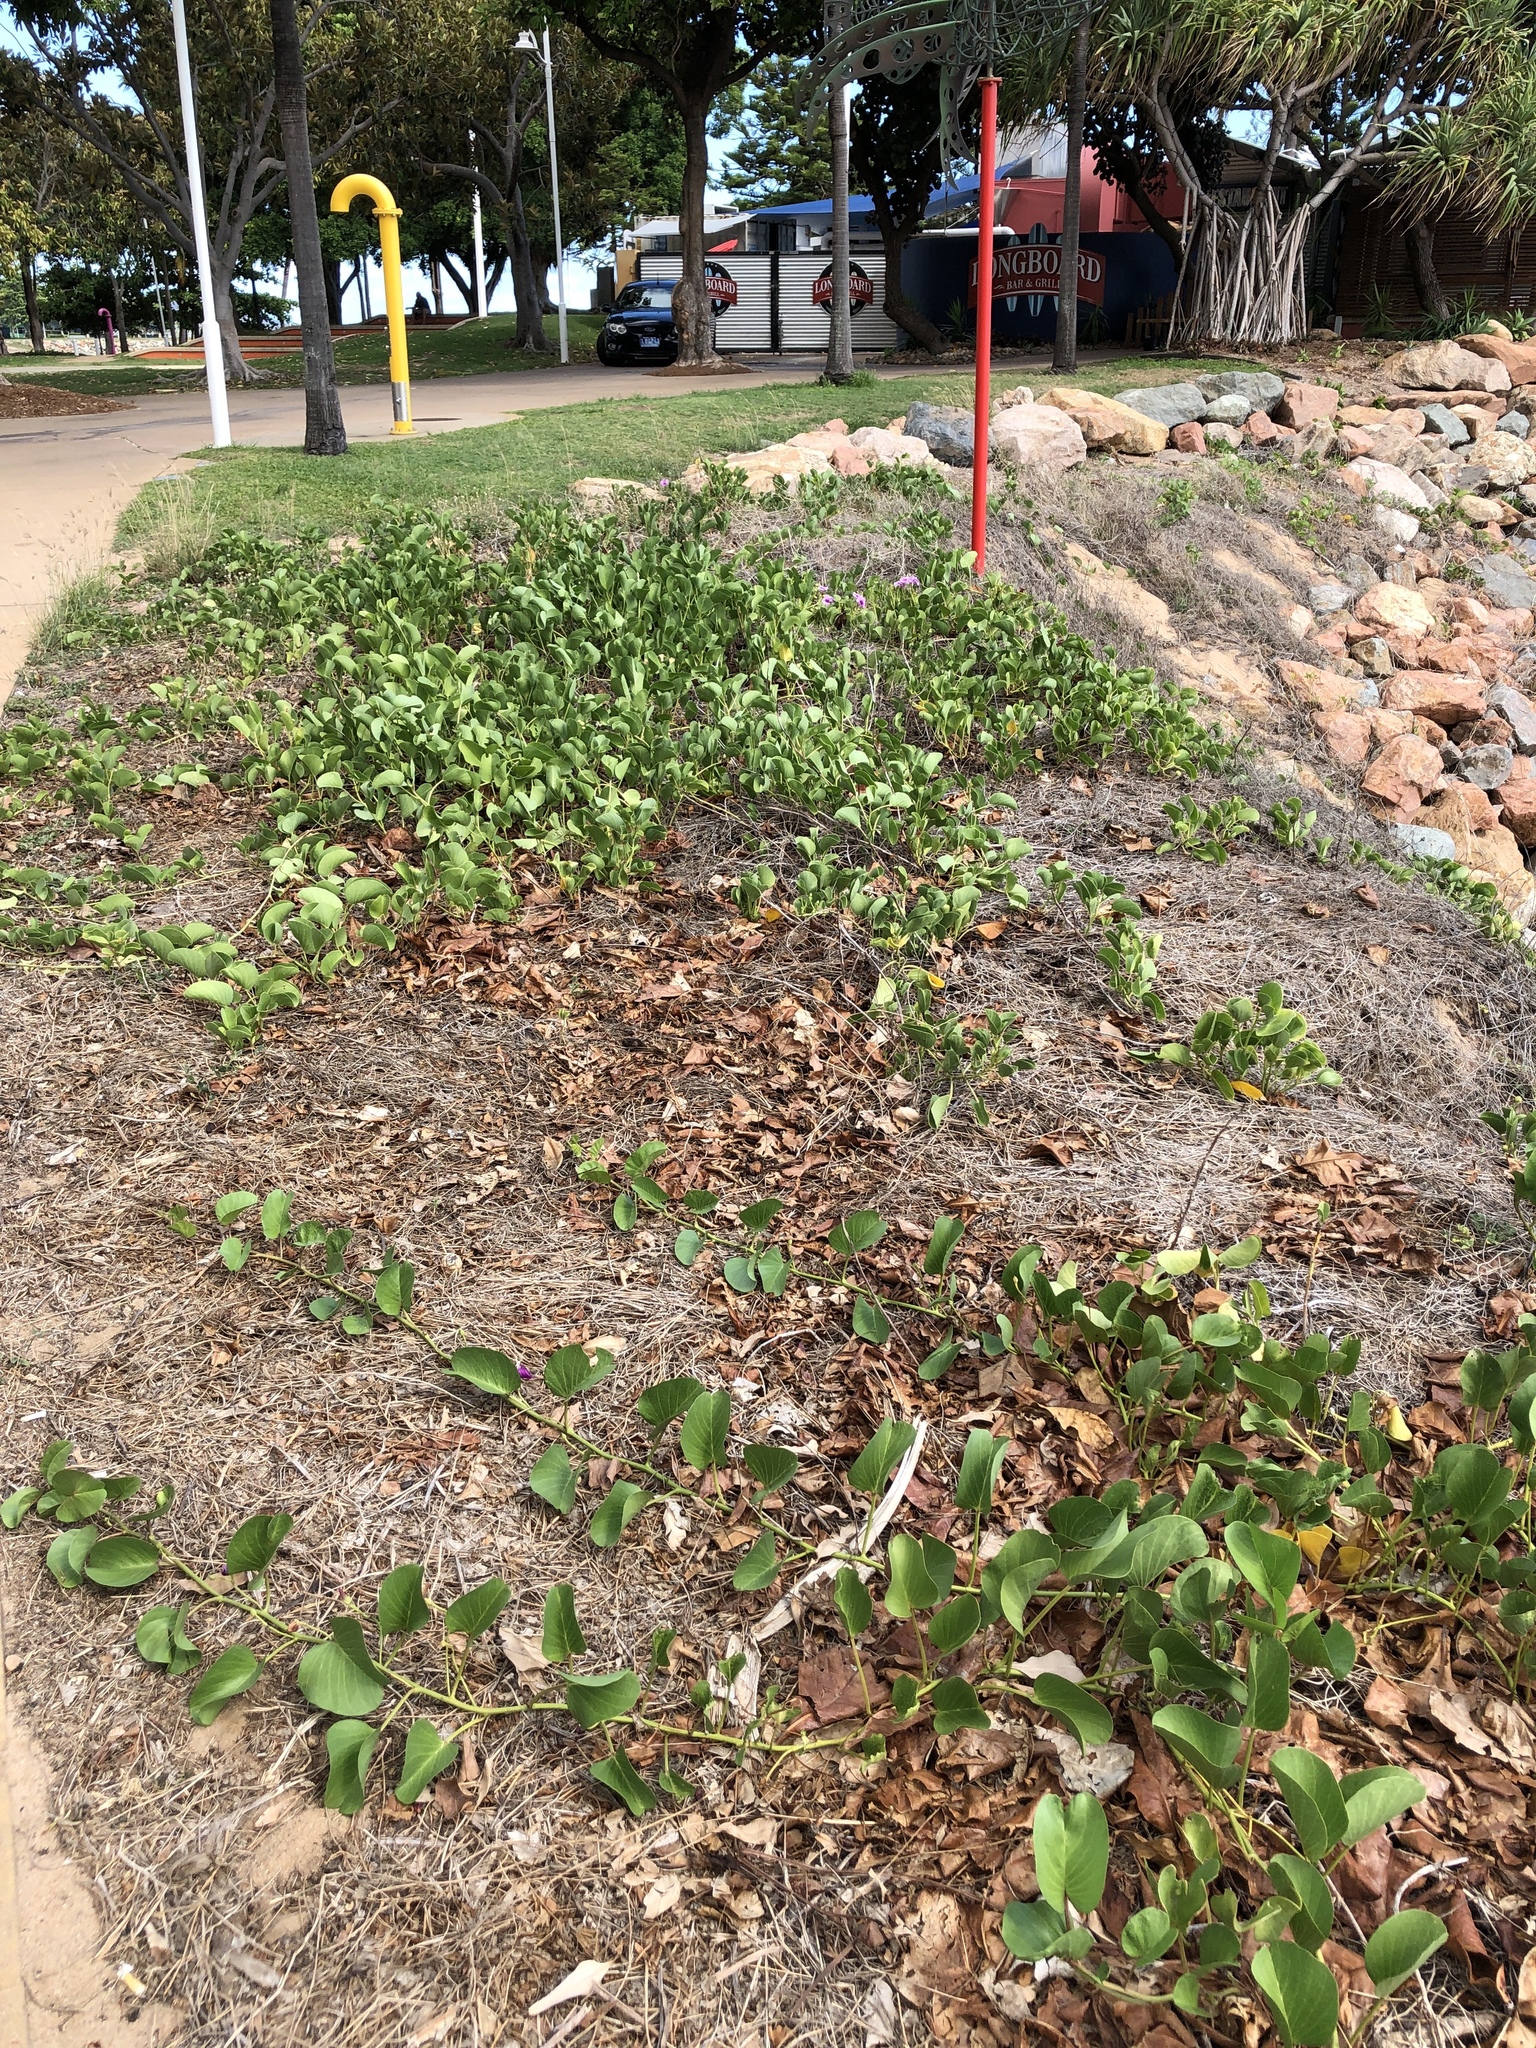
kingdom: Plantae
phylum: Tracheophyta
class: Magnoliopsida
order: Solanales
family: Convolvulaceae
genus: Ipomoea
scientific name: Ipomoea pes-caprae
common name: Beach morning glory
